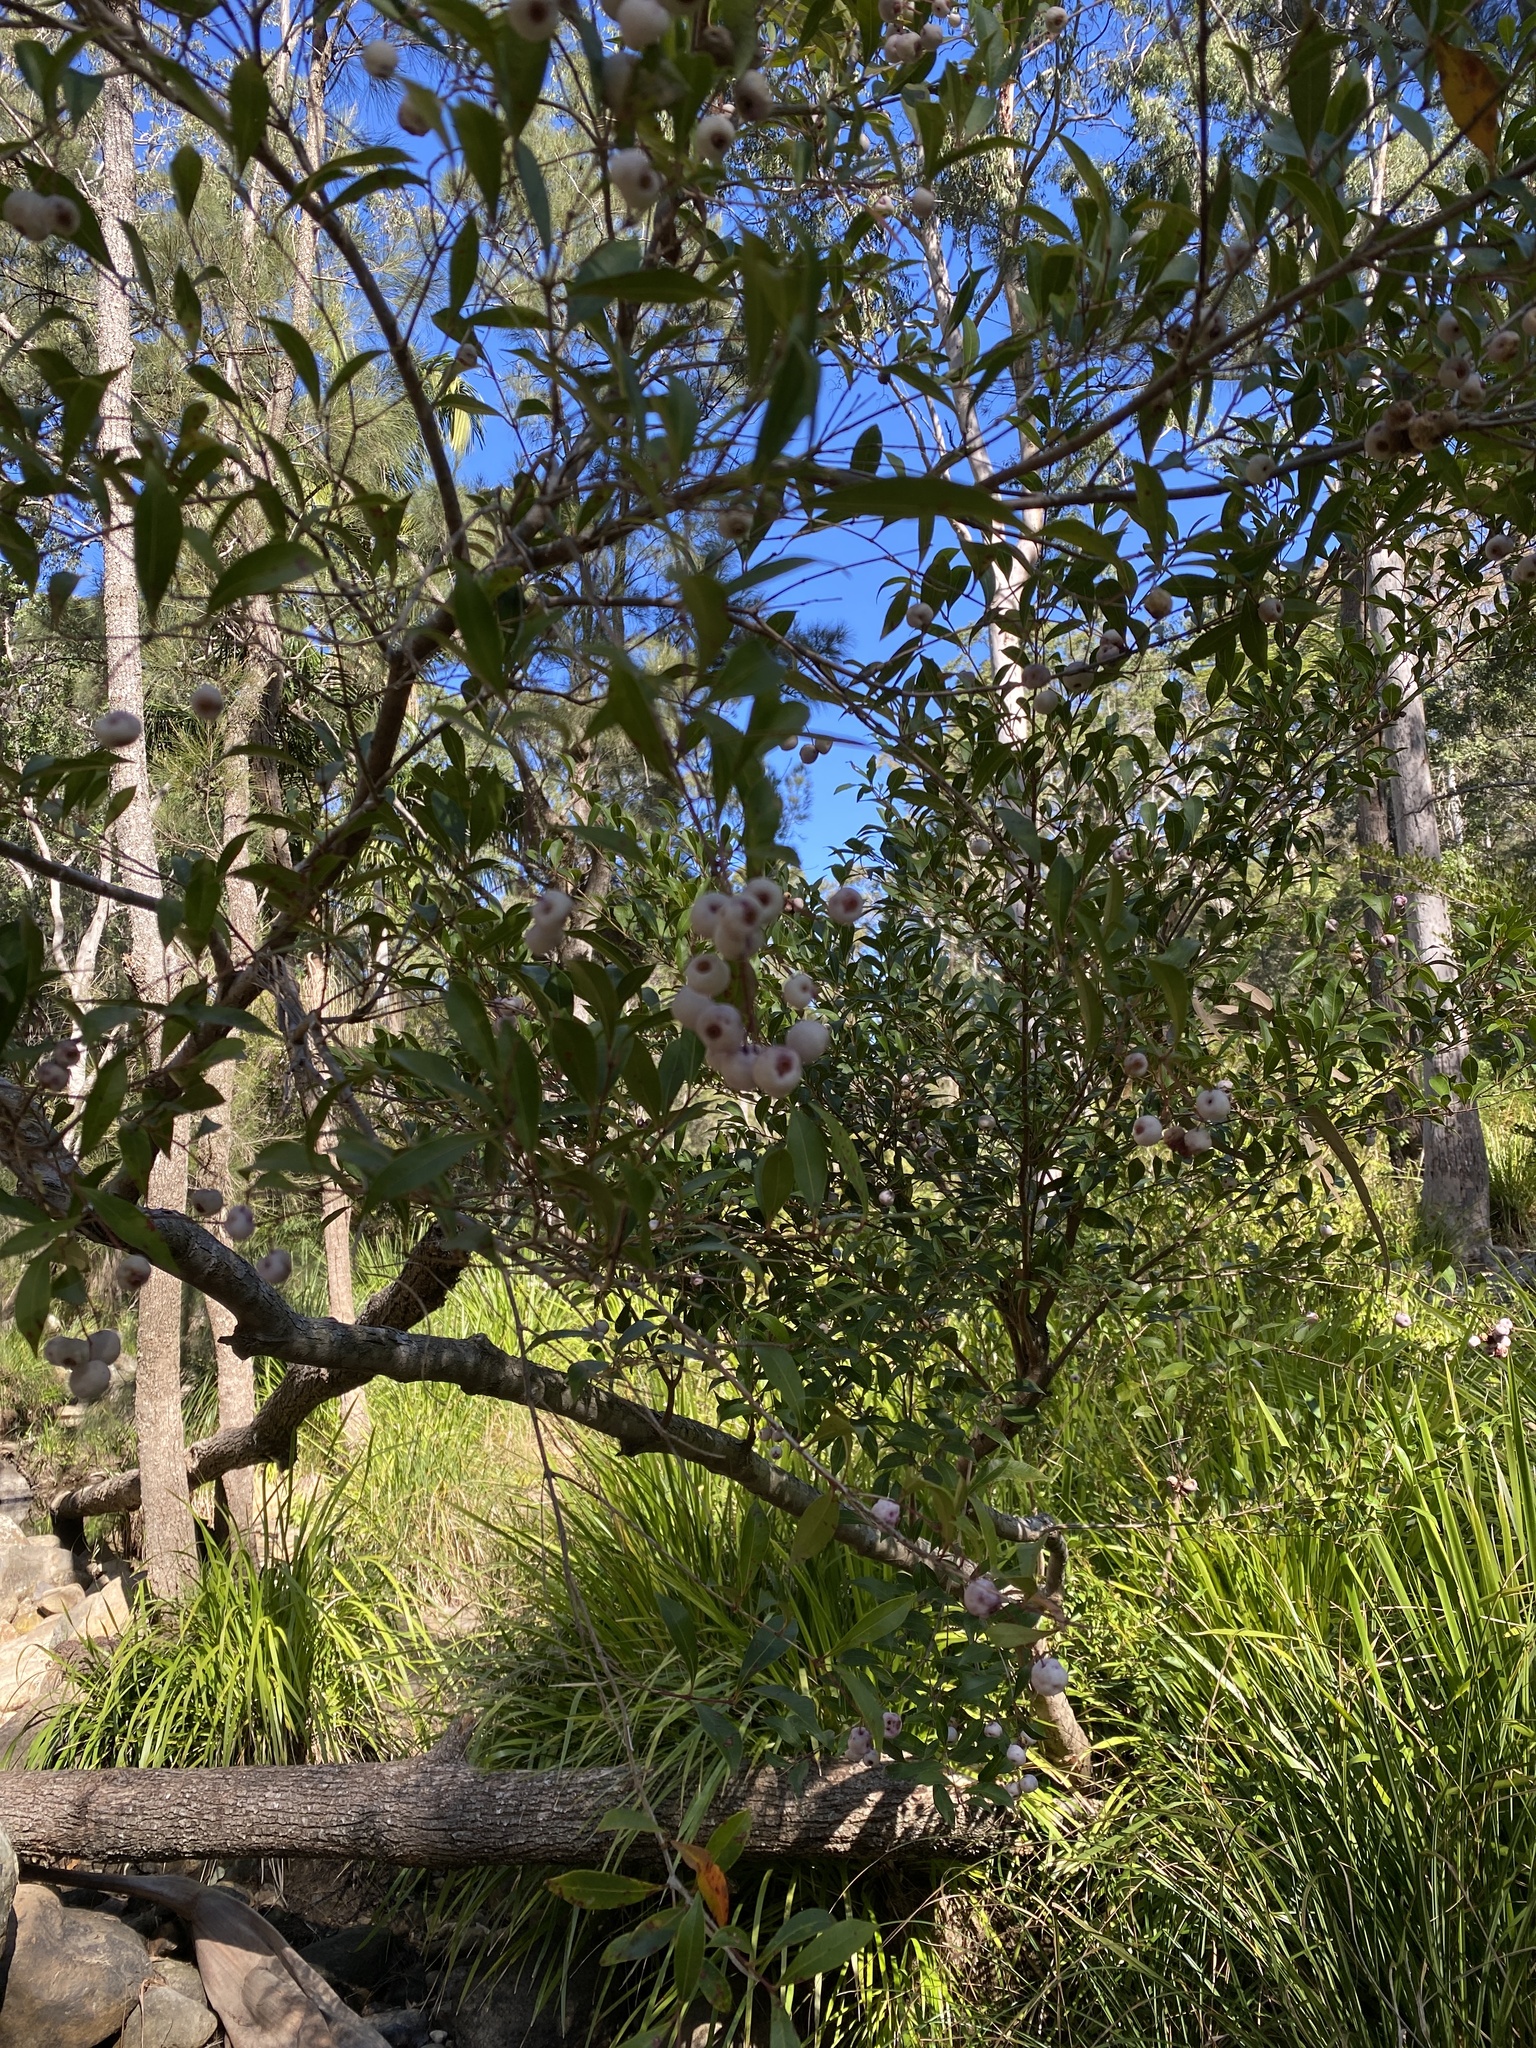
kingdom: Plantae
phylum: Tracheophyta
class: Magnoliopsida
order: Myrtales
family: Myrtaceae
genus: Syzygium
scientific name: Syzygium smithii
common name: Lilly-pilly
